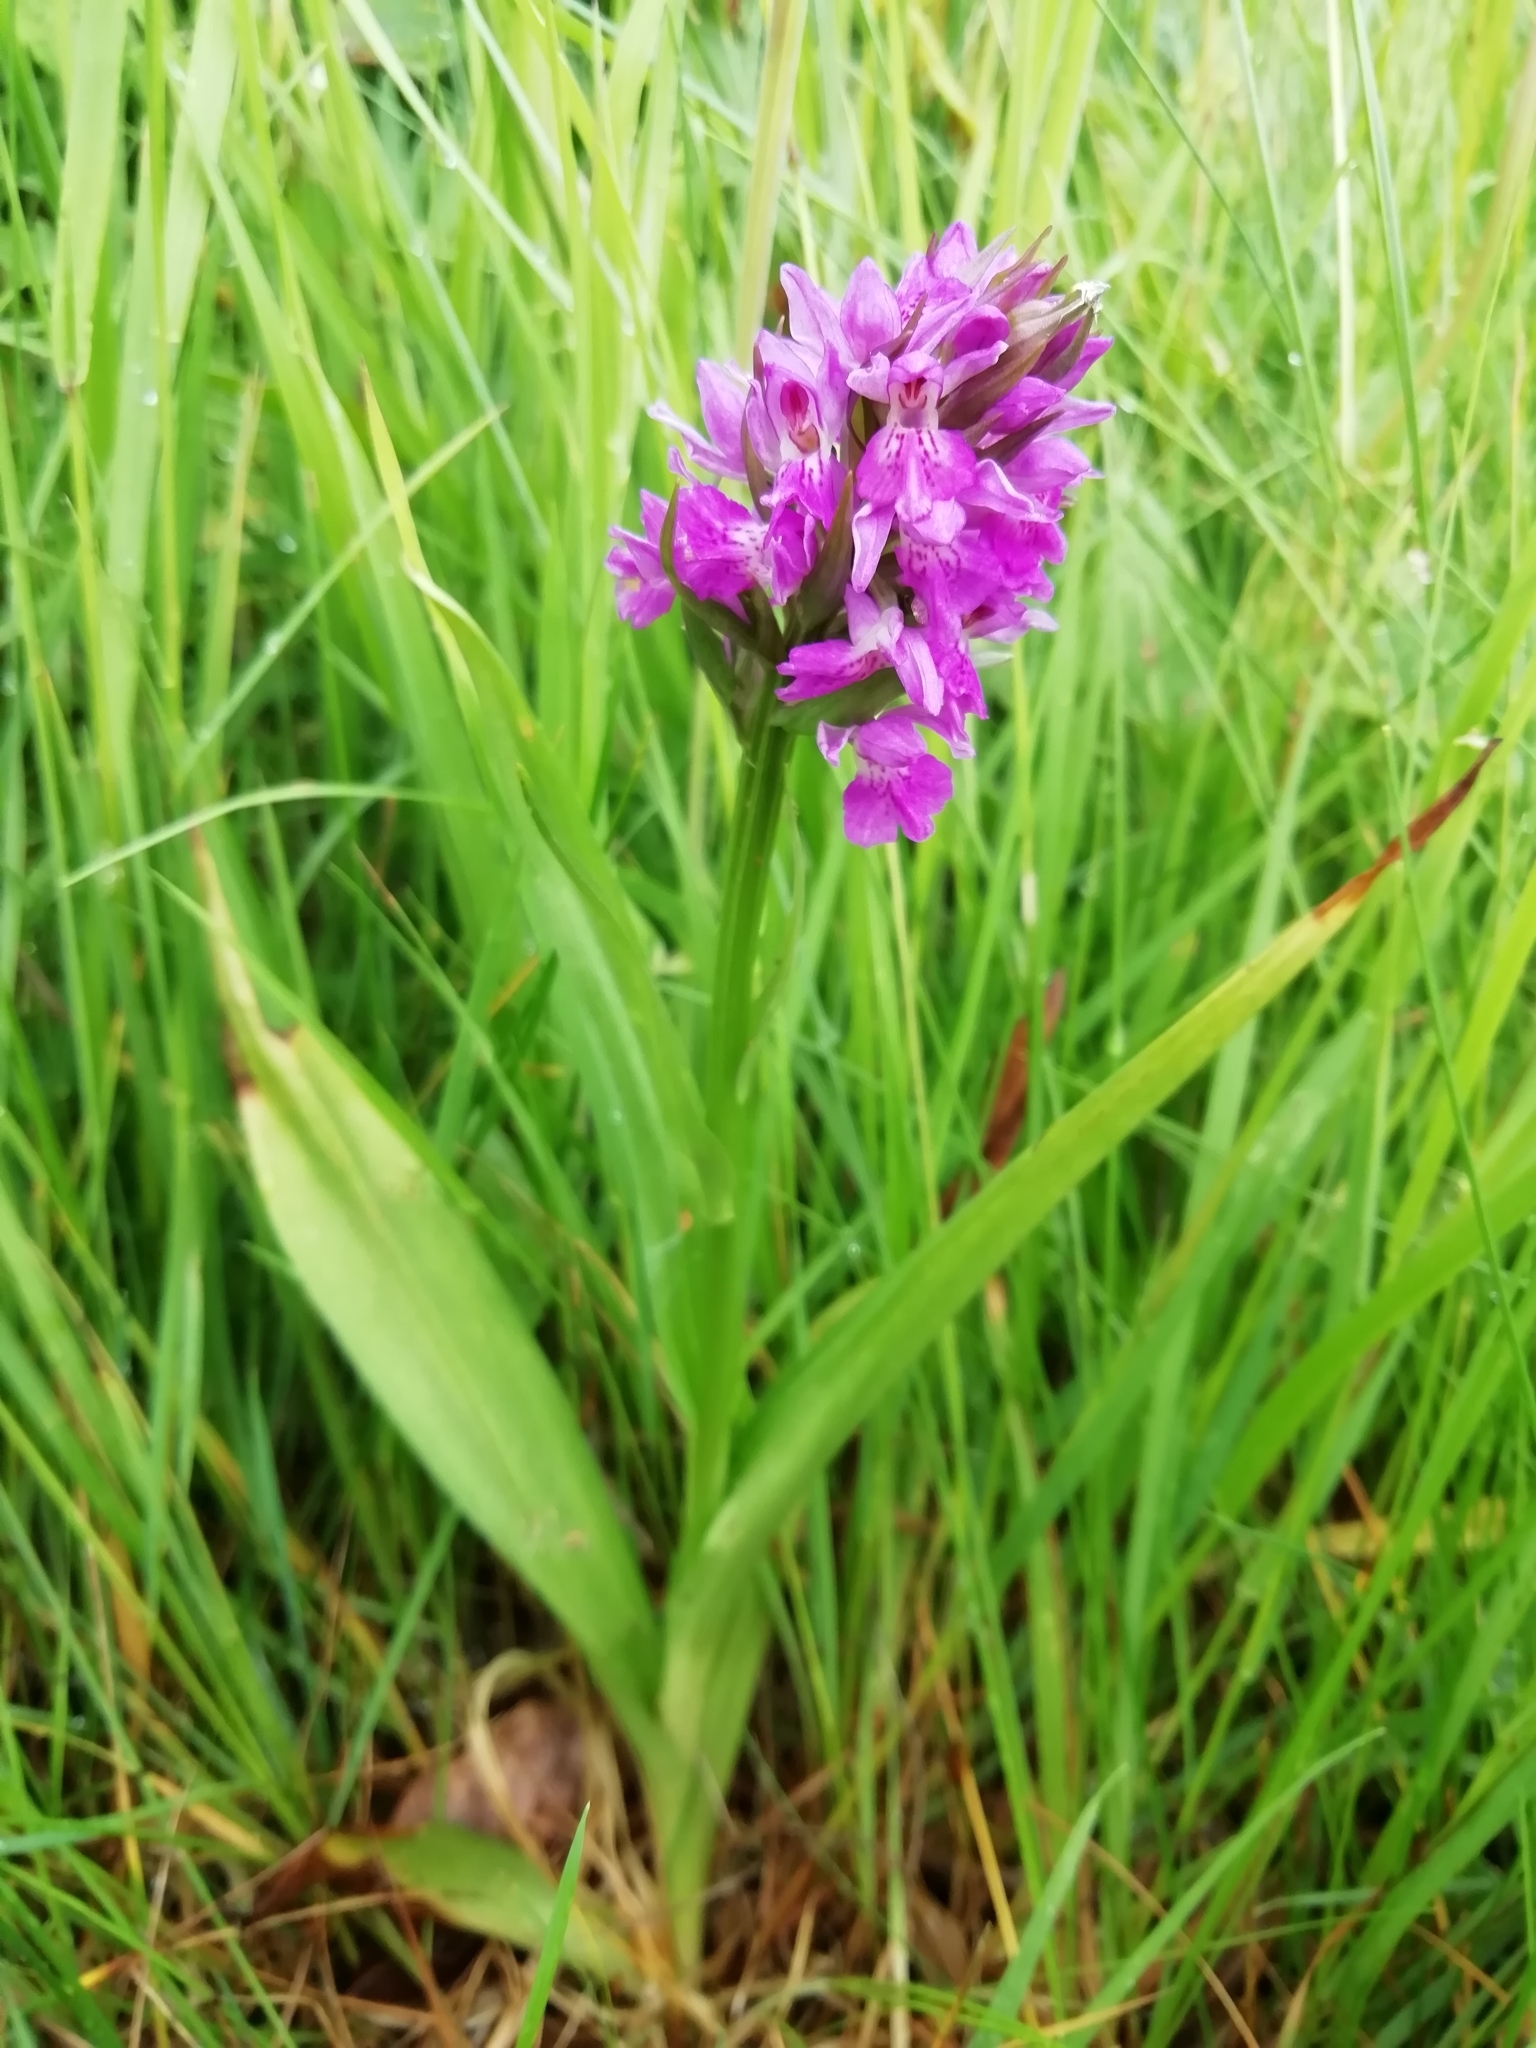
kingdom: Plantae
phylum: Tracheophyta
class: Liliopsida
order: Asparagales
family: Orchidaceae
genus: Dactylorhiza
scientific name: Dactylorhiza majalis
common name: Marsh orchid
